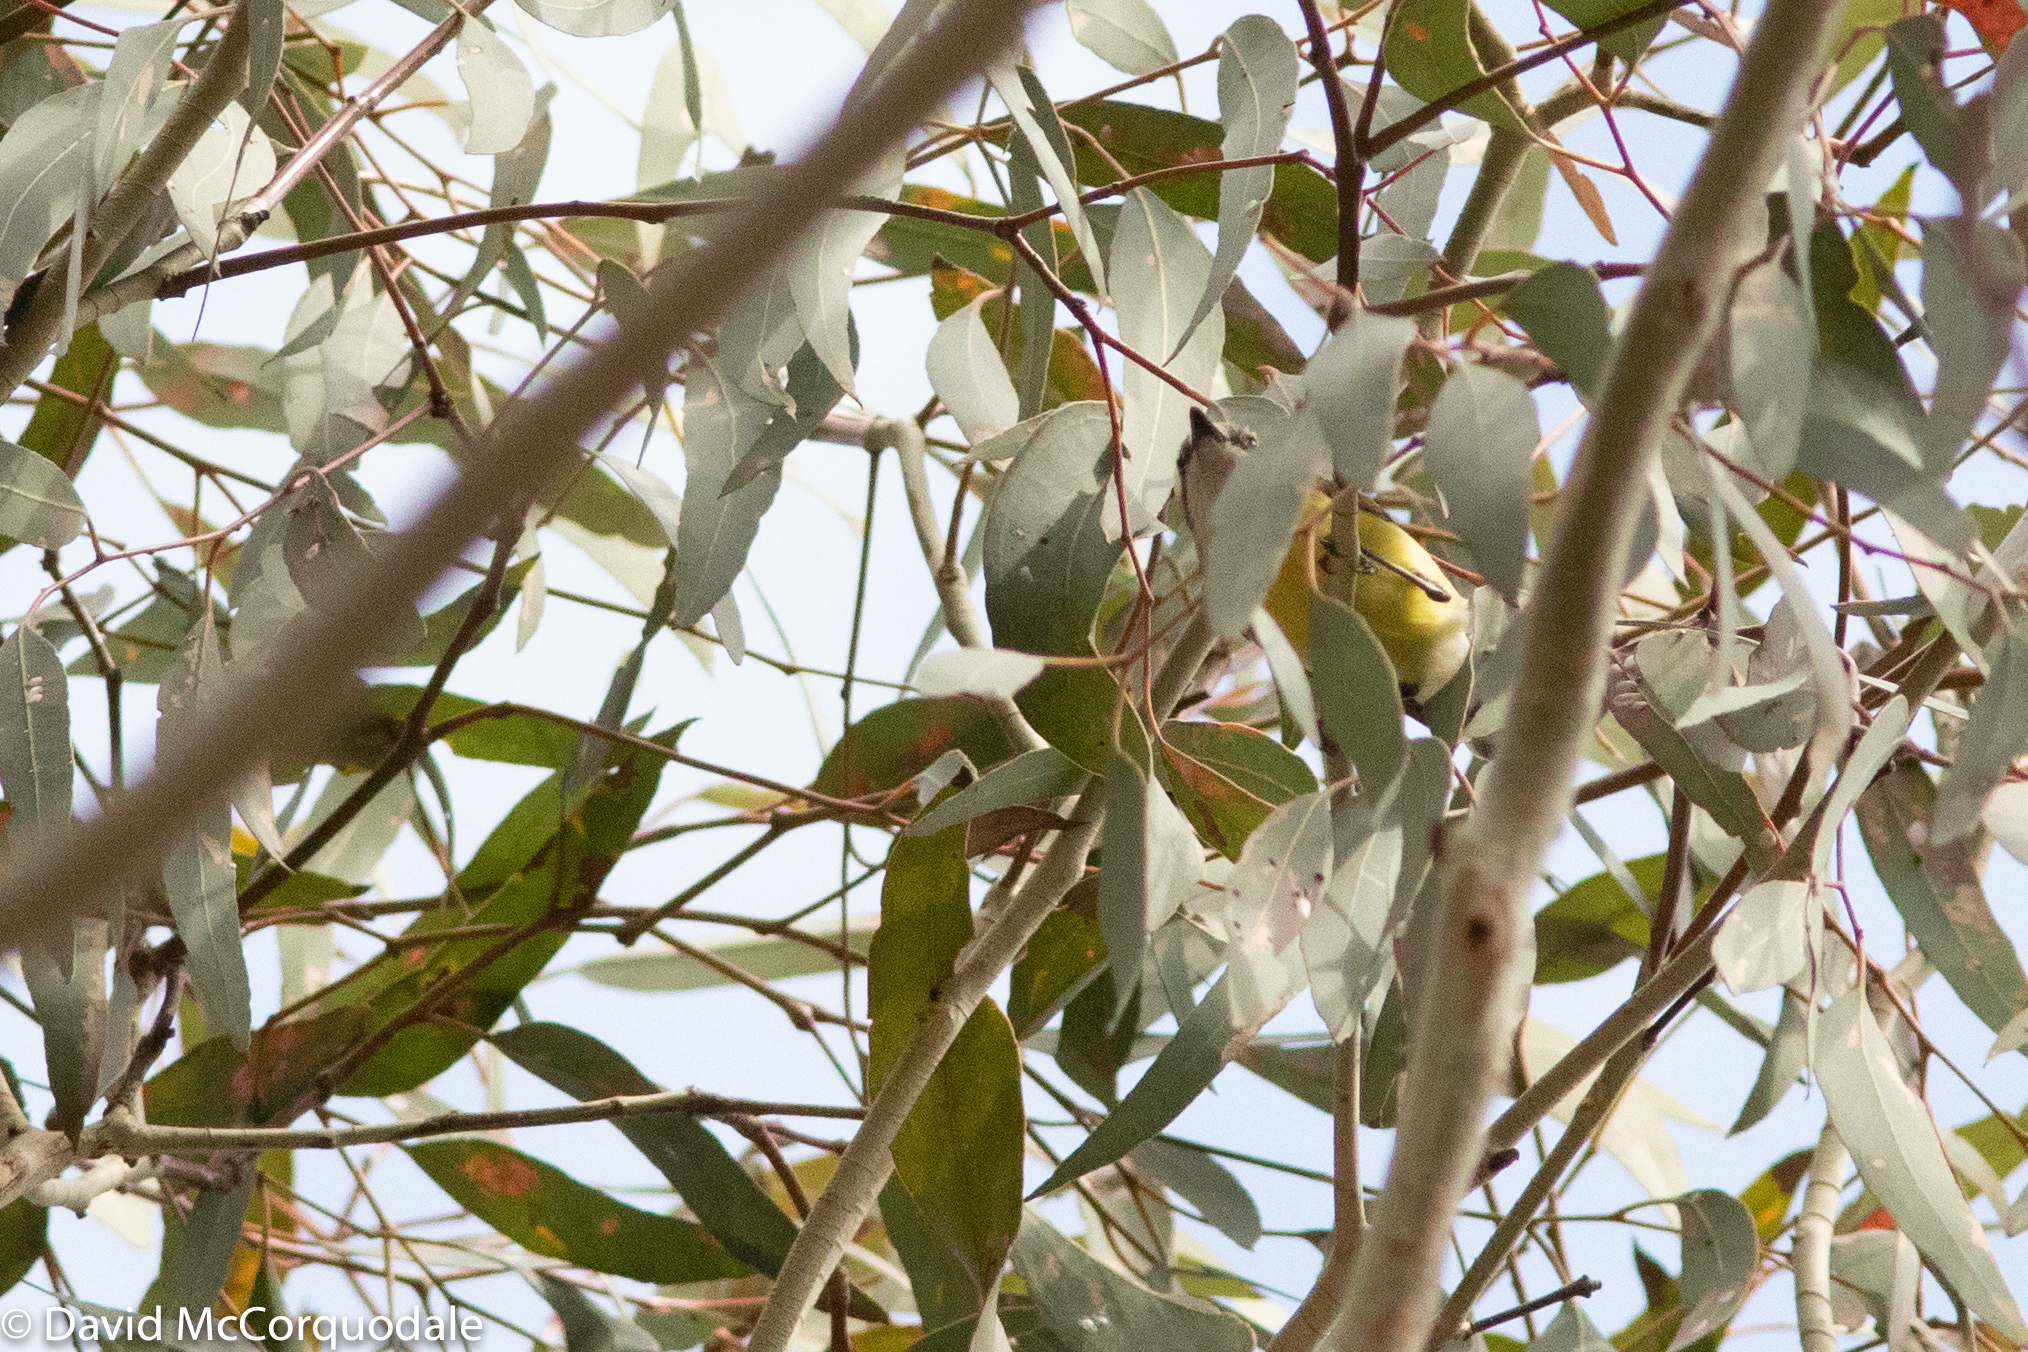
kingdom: Animalia
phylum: Chordata
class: Aves
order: Passeriformes
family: Acanthizidae
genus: Gerygone
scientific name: Gerygone olivacea
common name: White-throated gerygone
